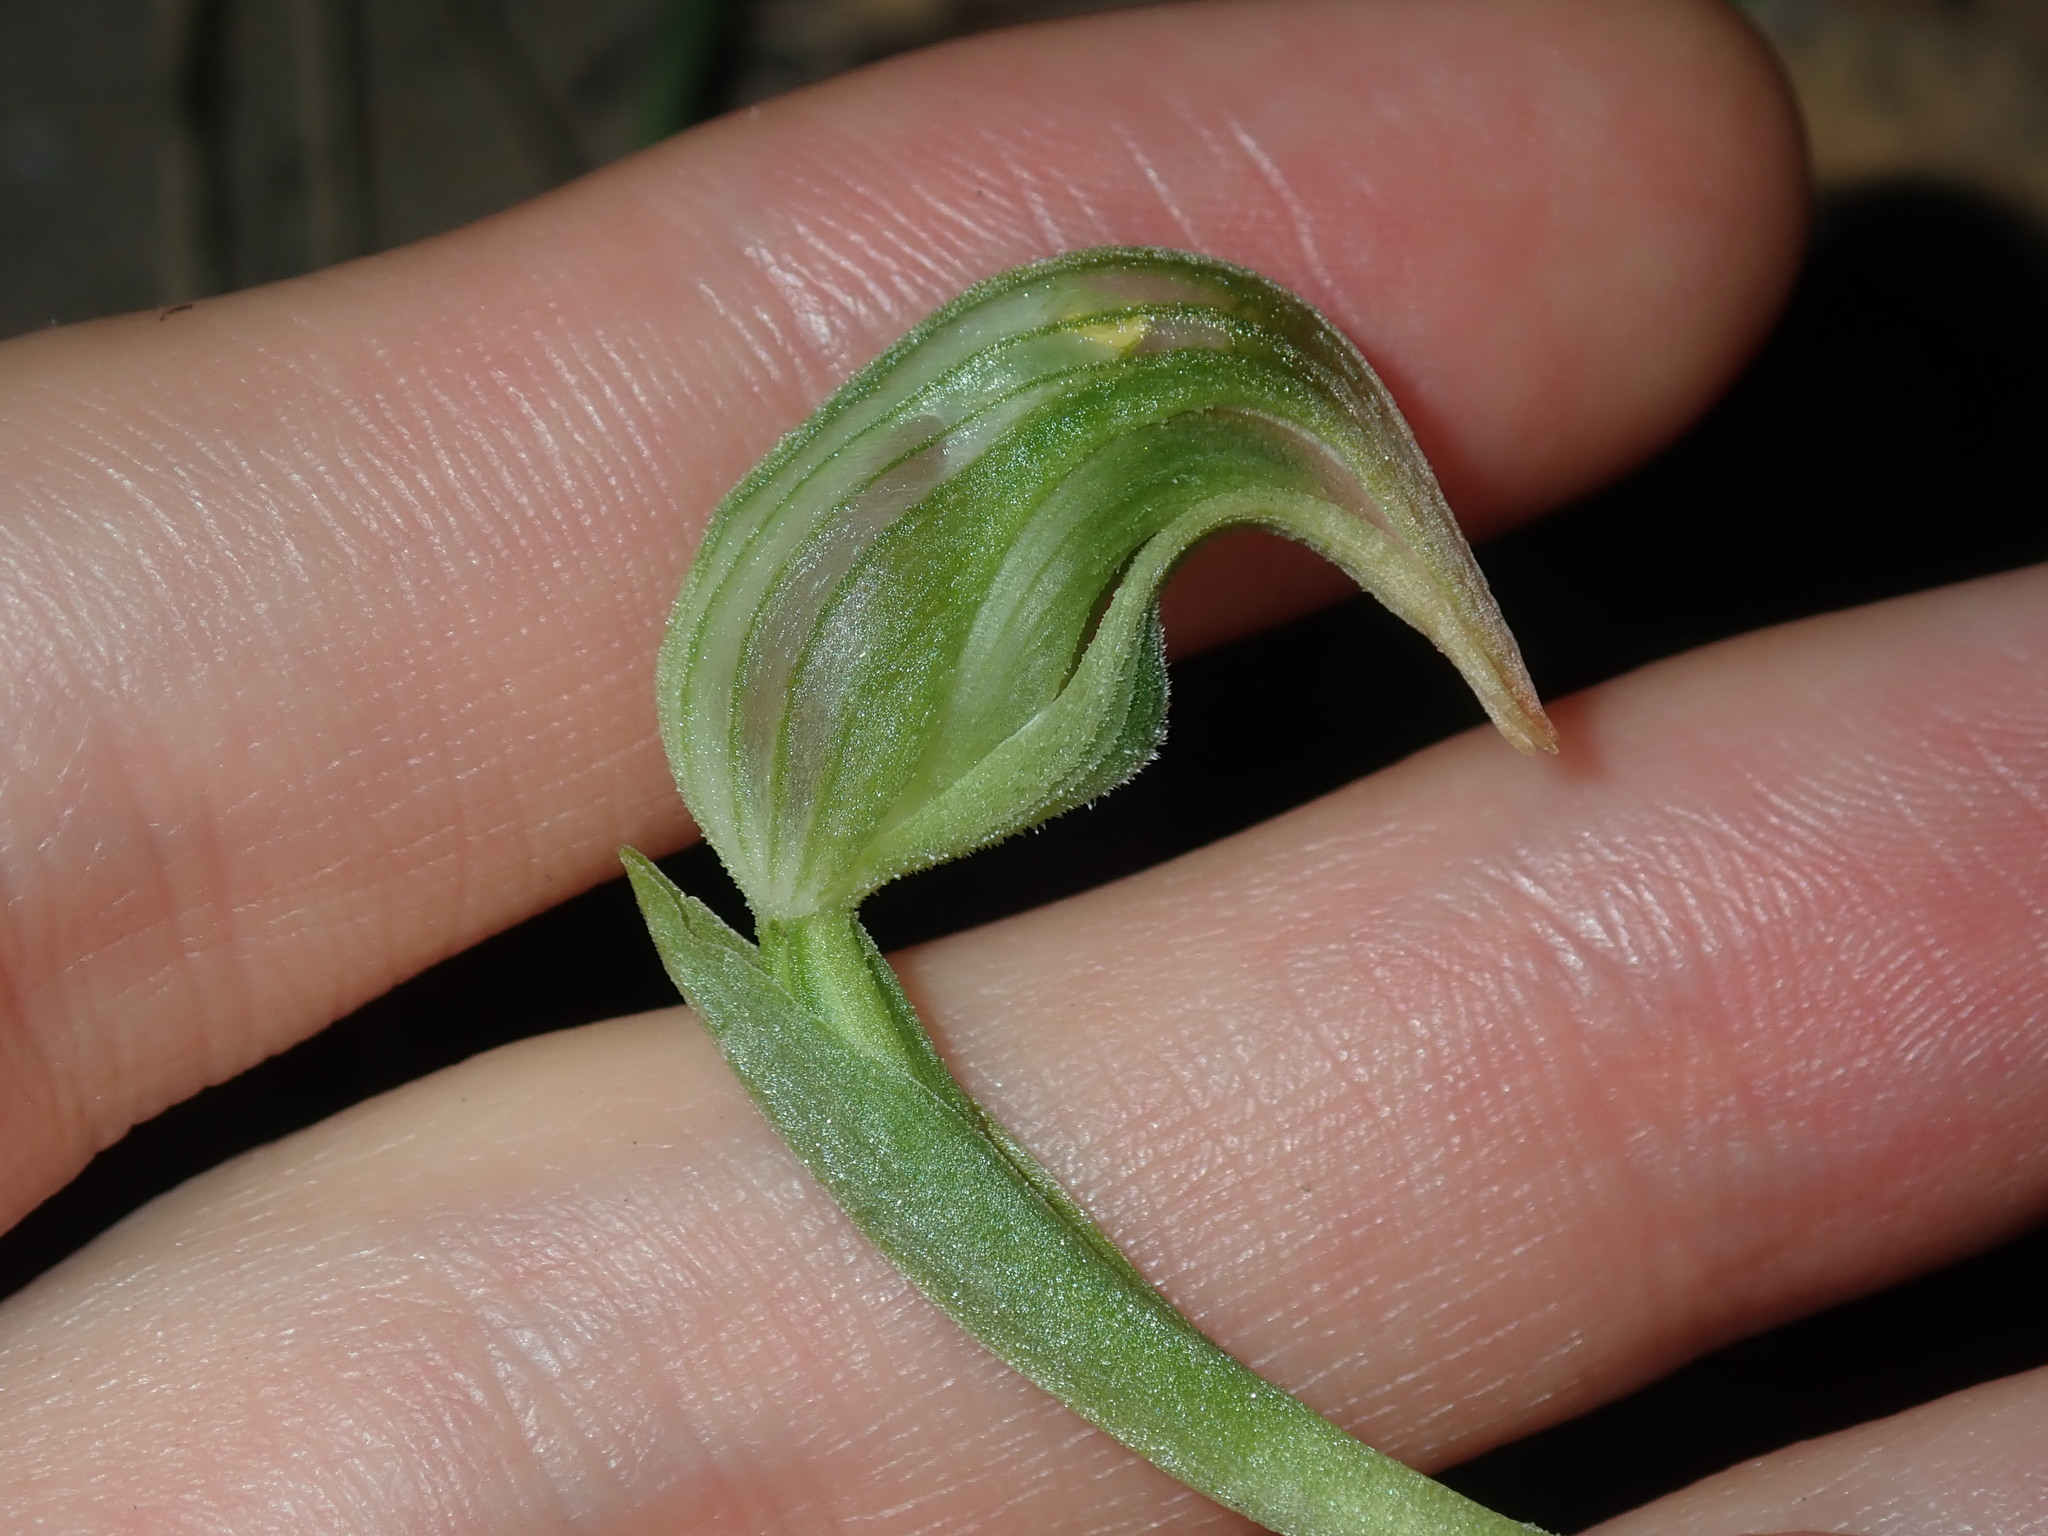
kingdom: Plantae
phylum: Tracheophyta
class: Liliopsida
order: Asparagales
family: Orchidaceae
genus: Pterostylis
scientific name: Pterostylis nutans
